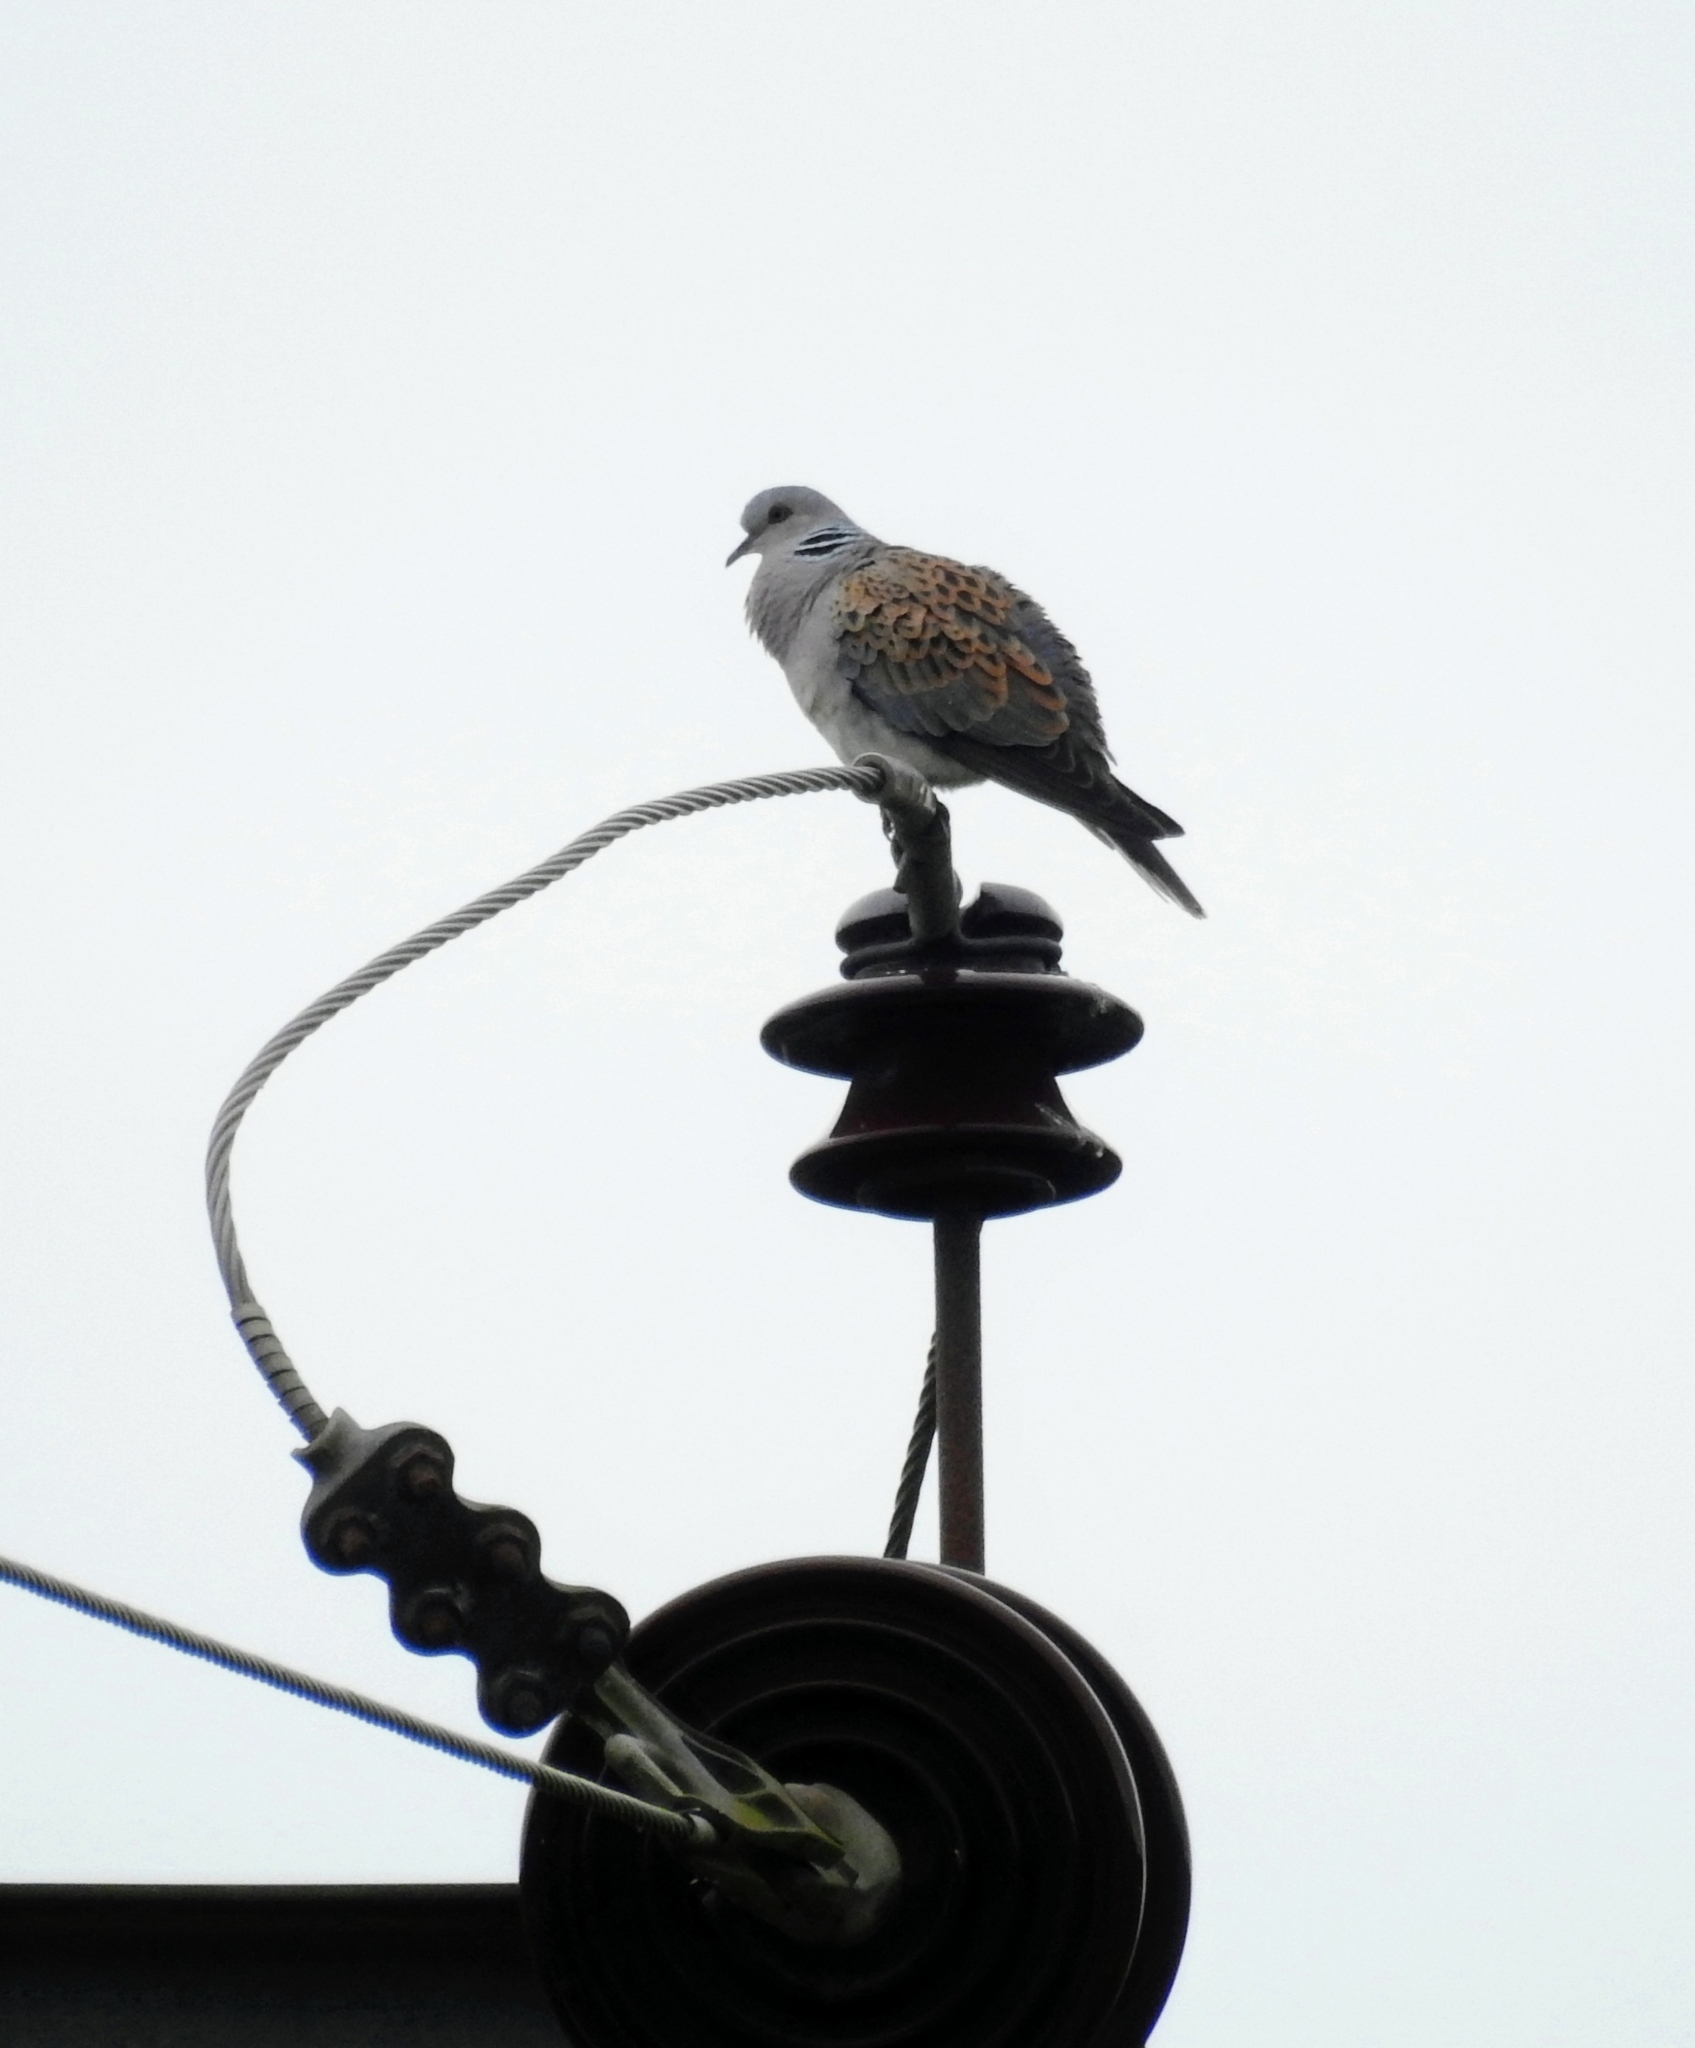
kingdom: Animalia
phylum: Chordata
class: Aves
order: Columbiformes
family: Columbidae
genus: Streptopelia
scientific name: Streptopelia turtur
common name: European turtle dove
